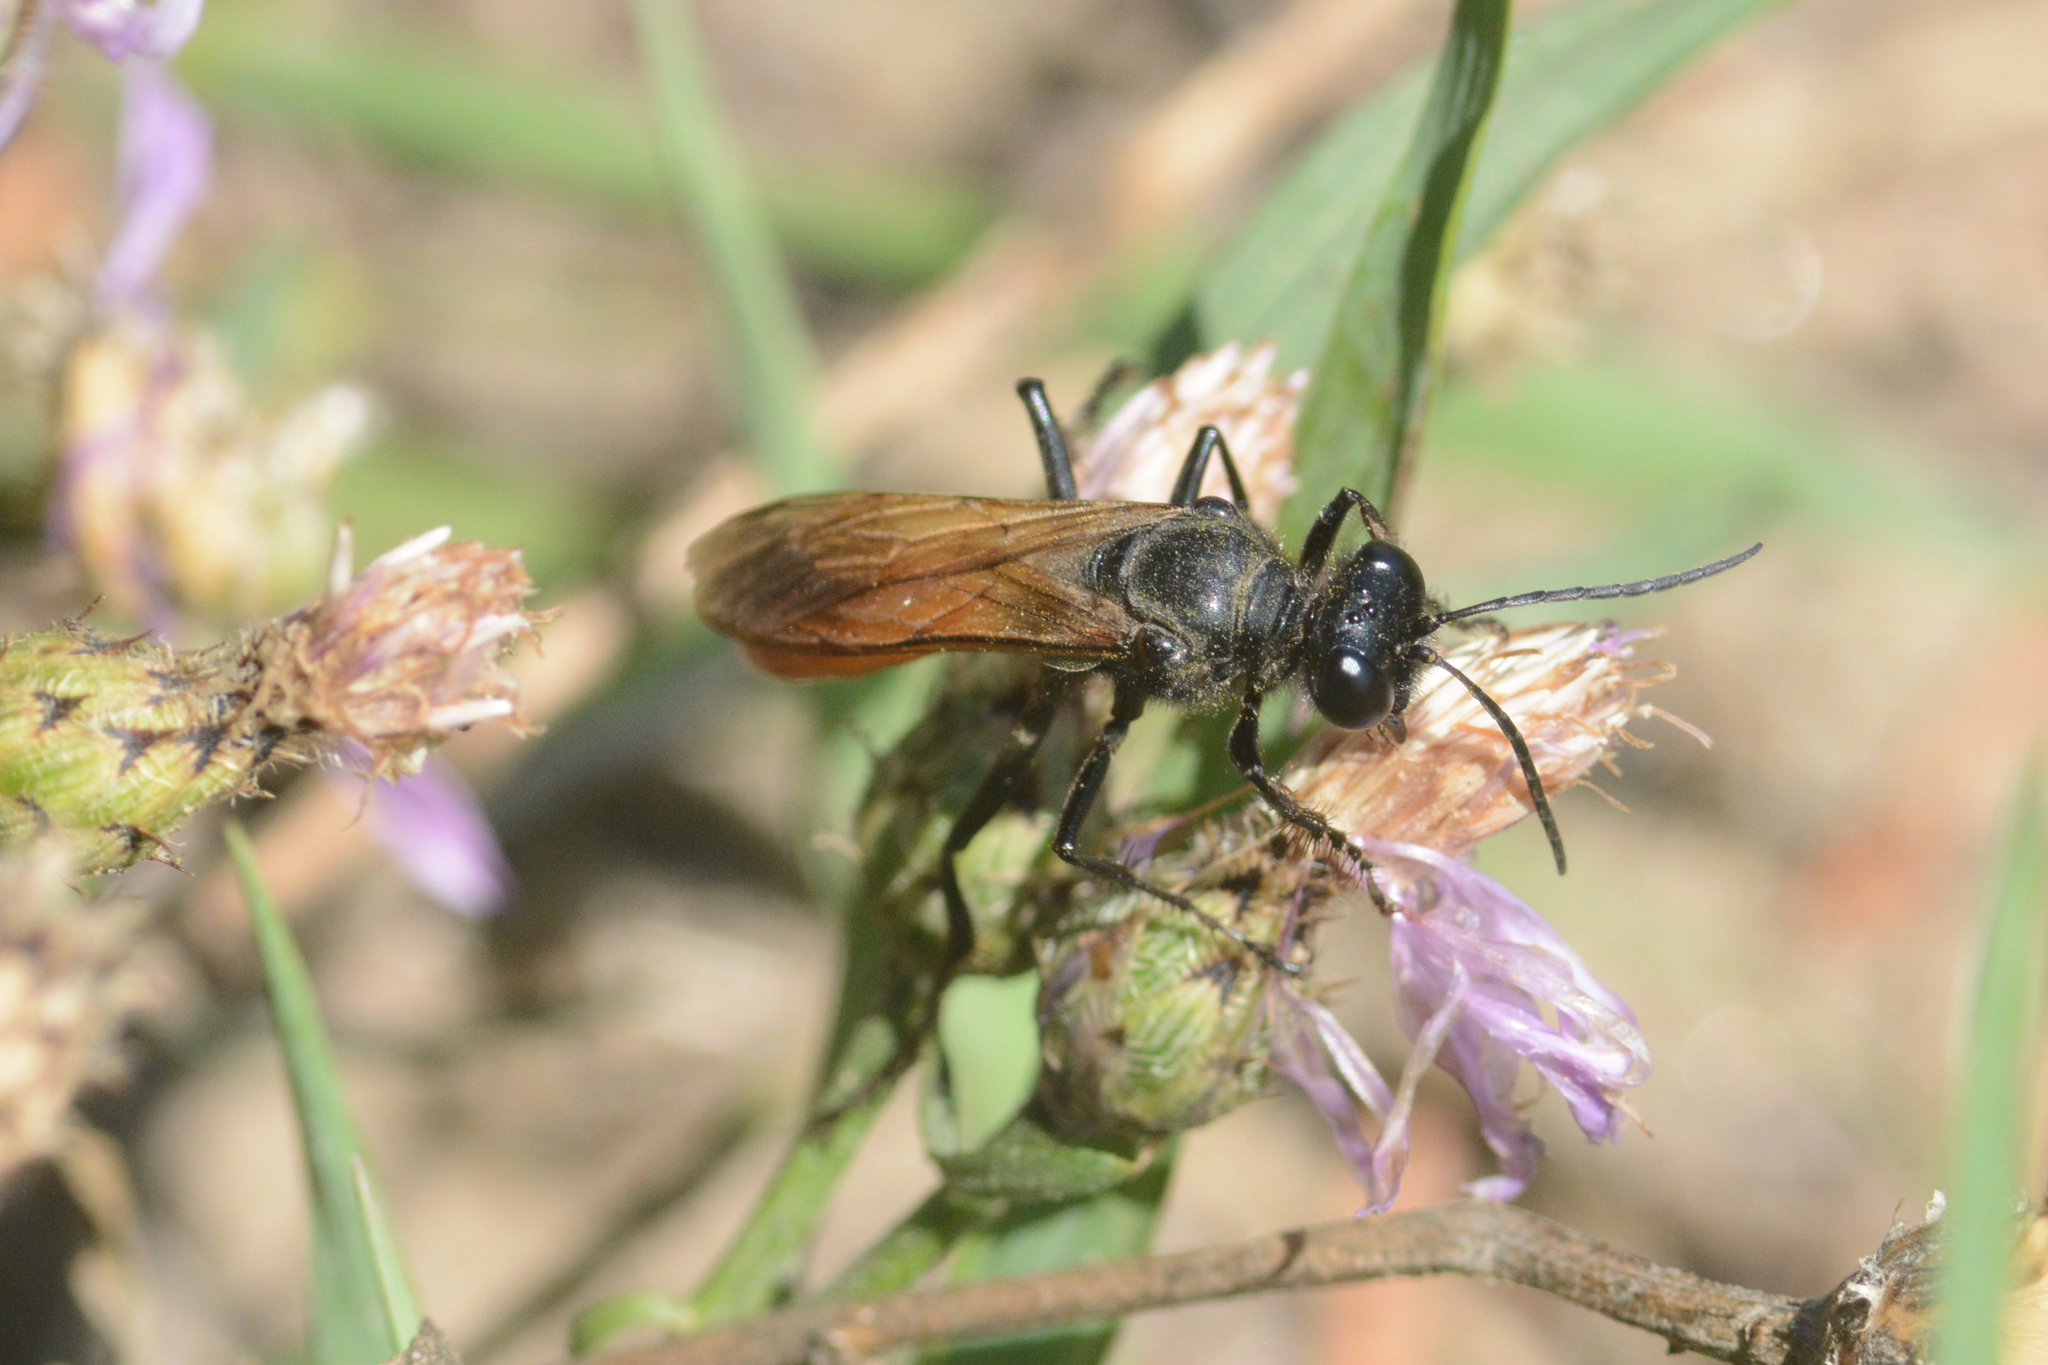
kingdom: Animalia
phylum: Arthropoda
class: Insecta
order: Hymenoptera
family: Sphecidae
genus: Sphex
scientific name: Sphex lucae
